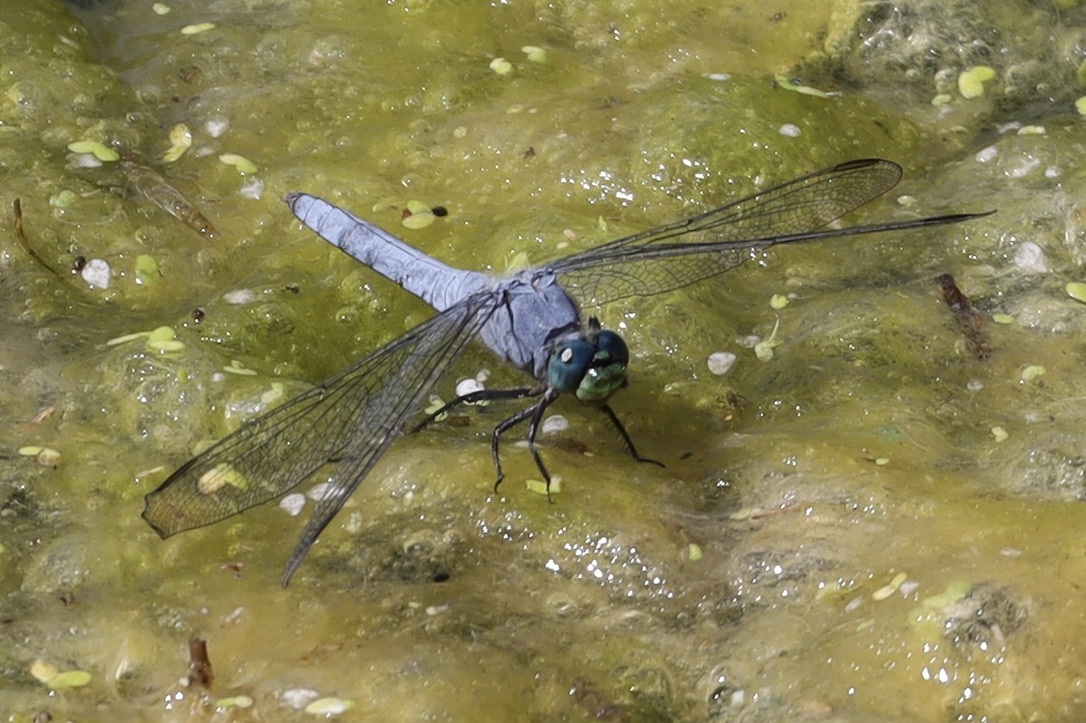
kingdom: Animalia
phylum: Arthropoda
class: Insecta
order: Odonata
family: Libellulidae
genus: Erythemis
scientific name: Erythemis collocata
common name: Western pondhawk
